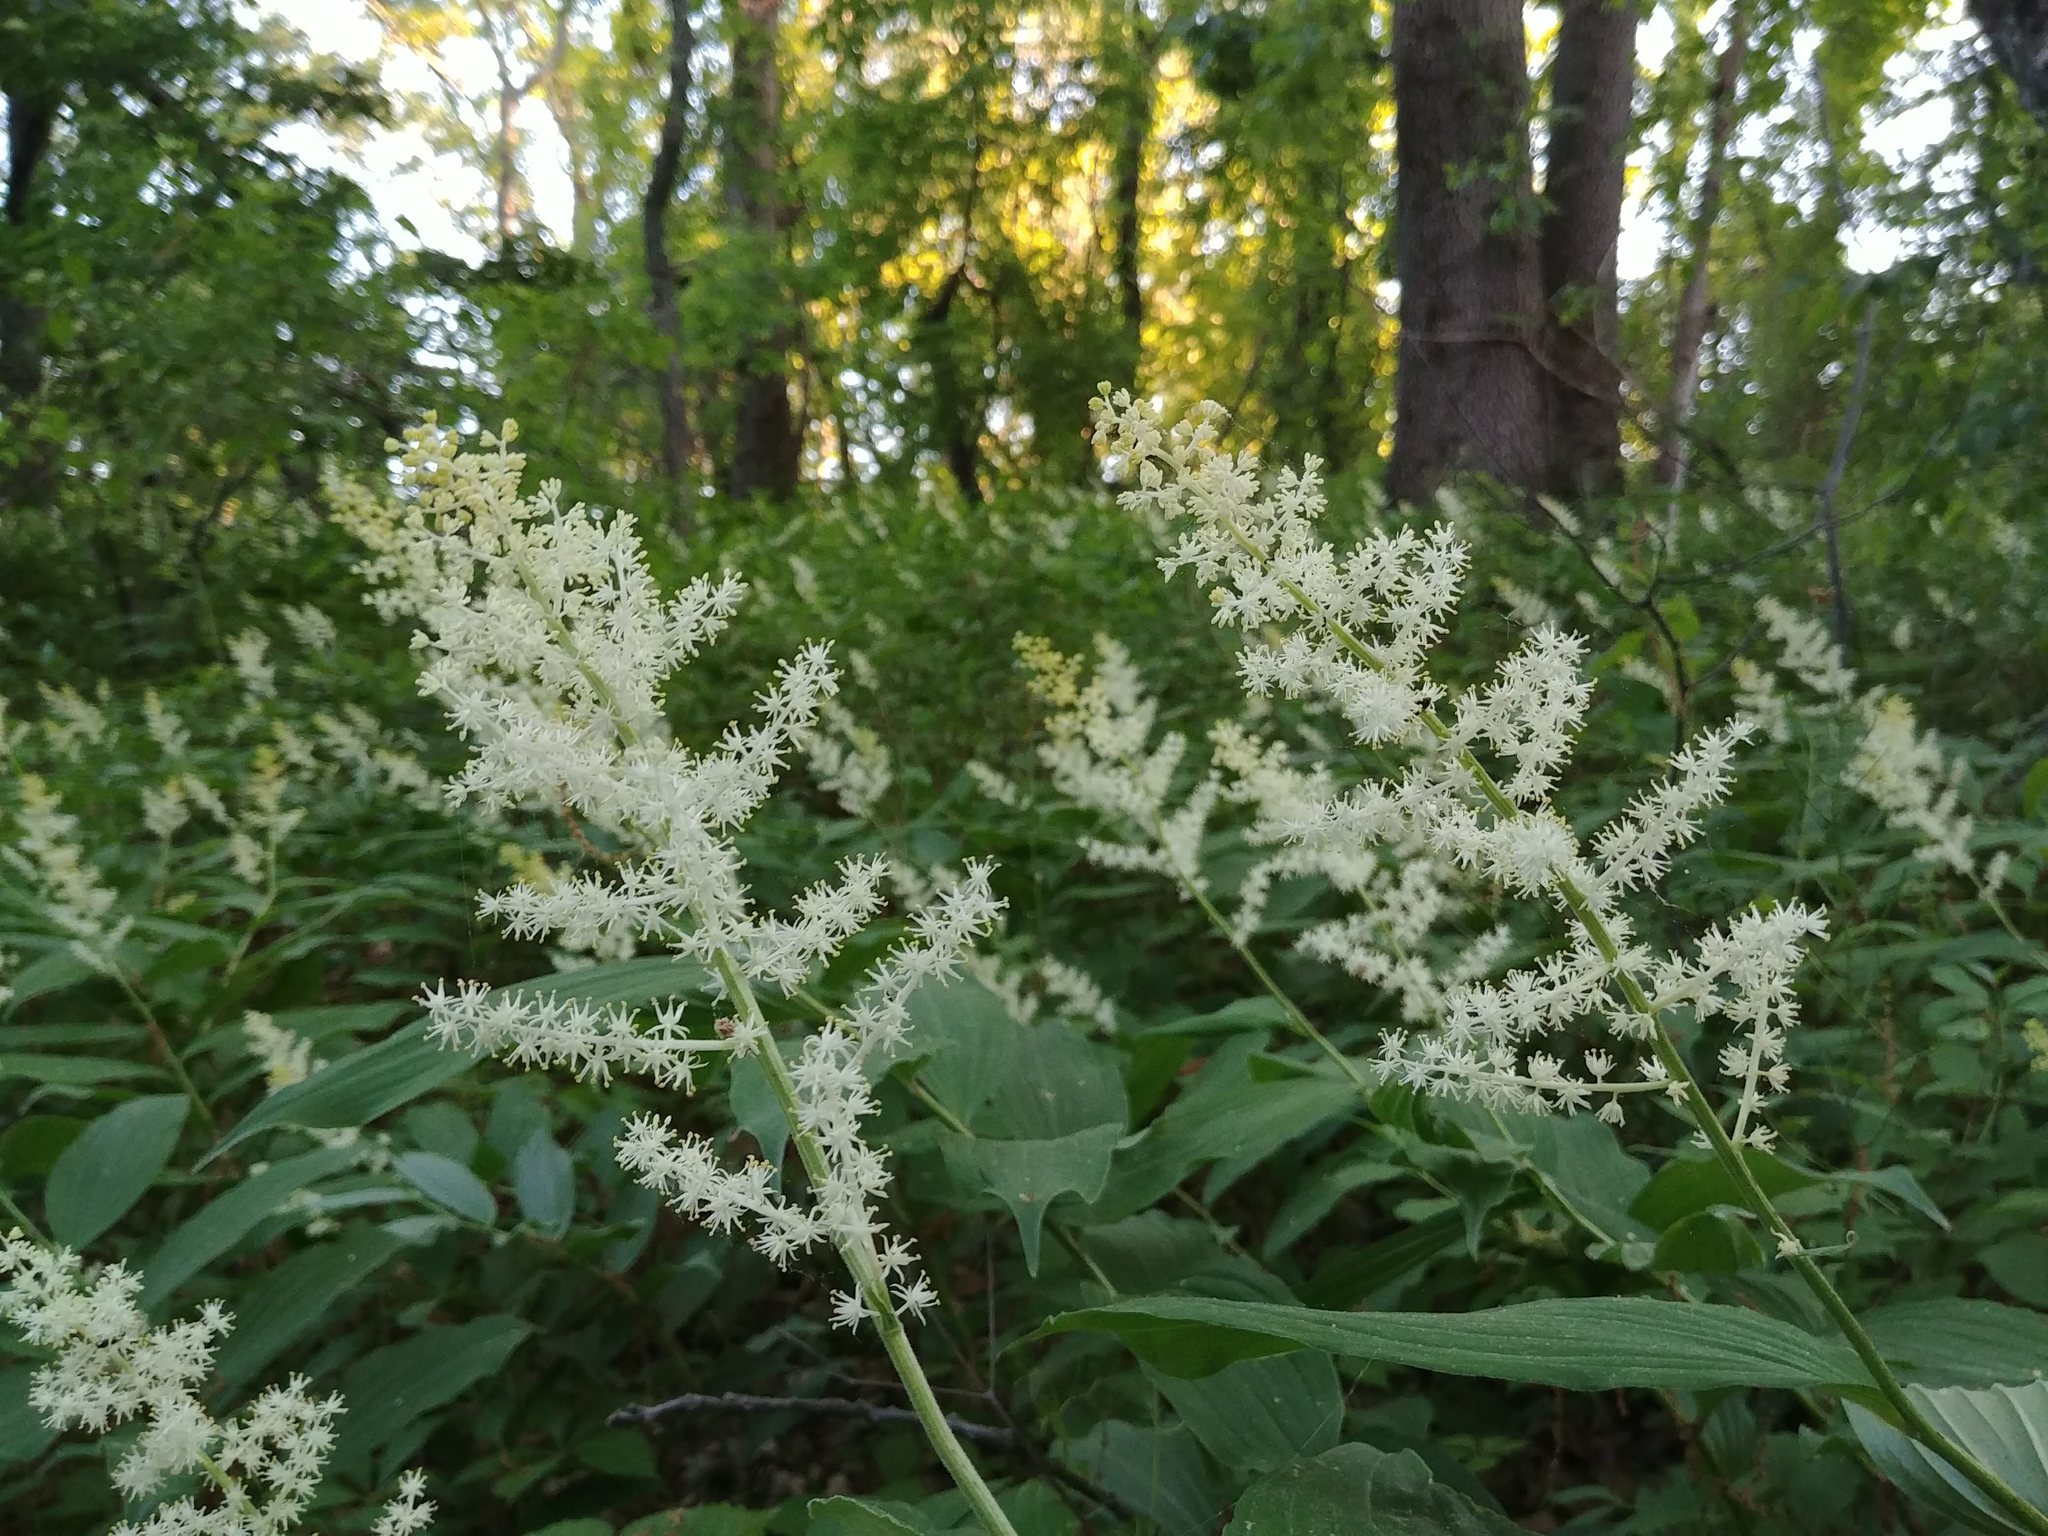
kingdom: Plantae
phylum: Tracheophyta
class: Liliopsida
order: Asparagales
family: Asparagaceae
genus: Maianthemum
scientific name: Maianthemum racemosum
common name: False spikenard
